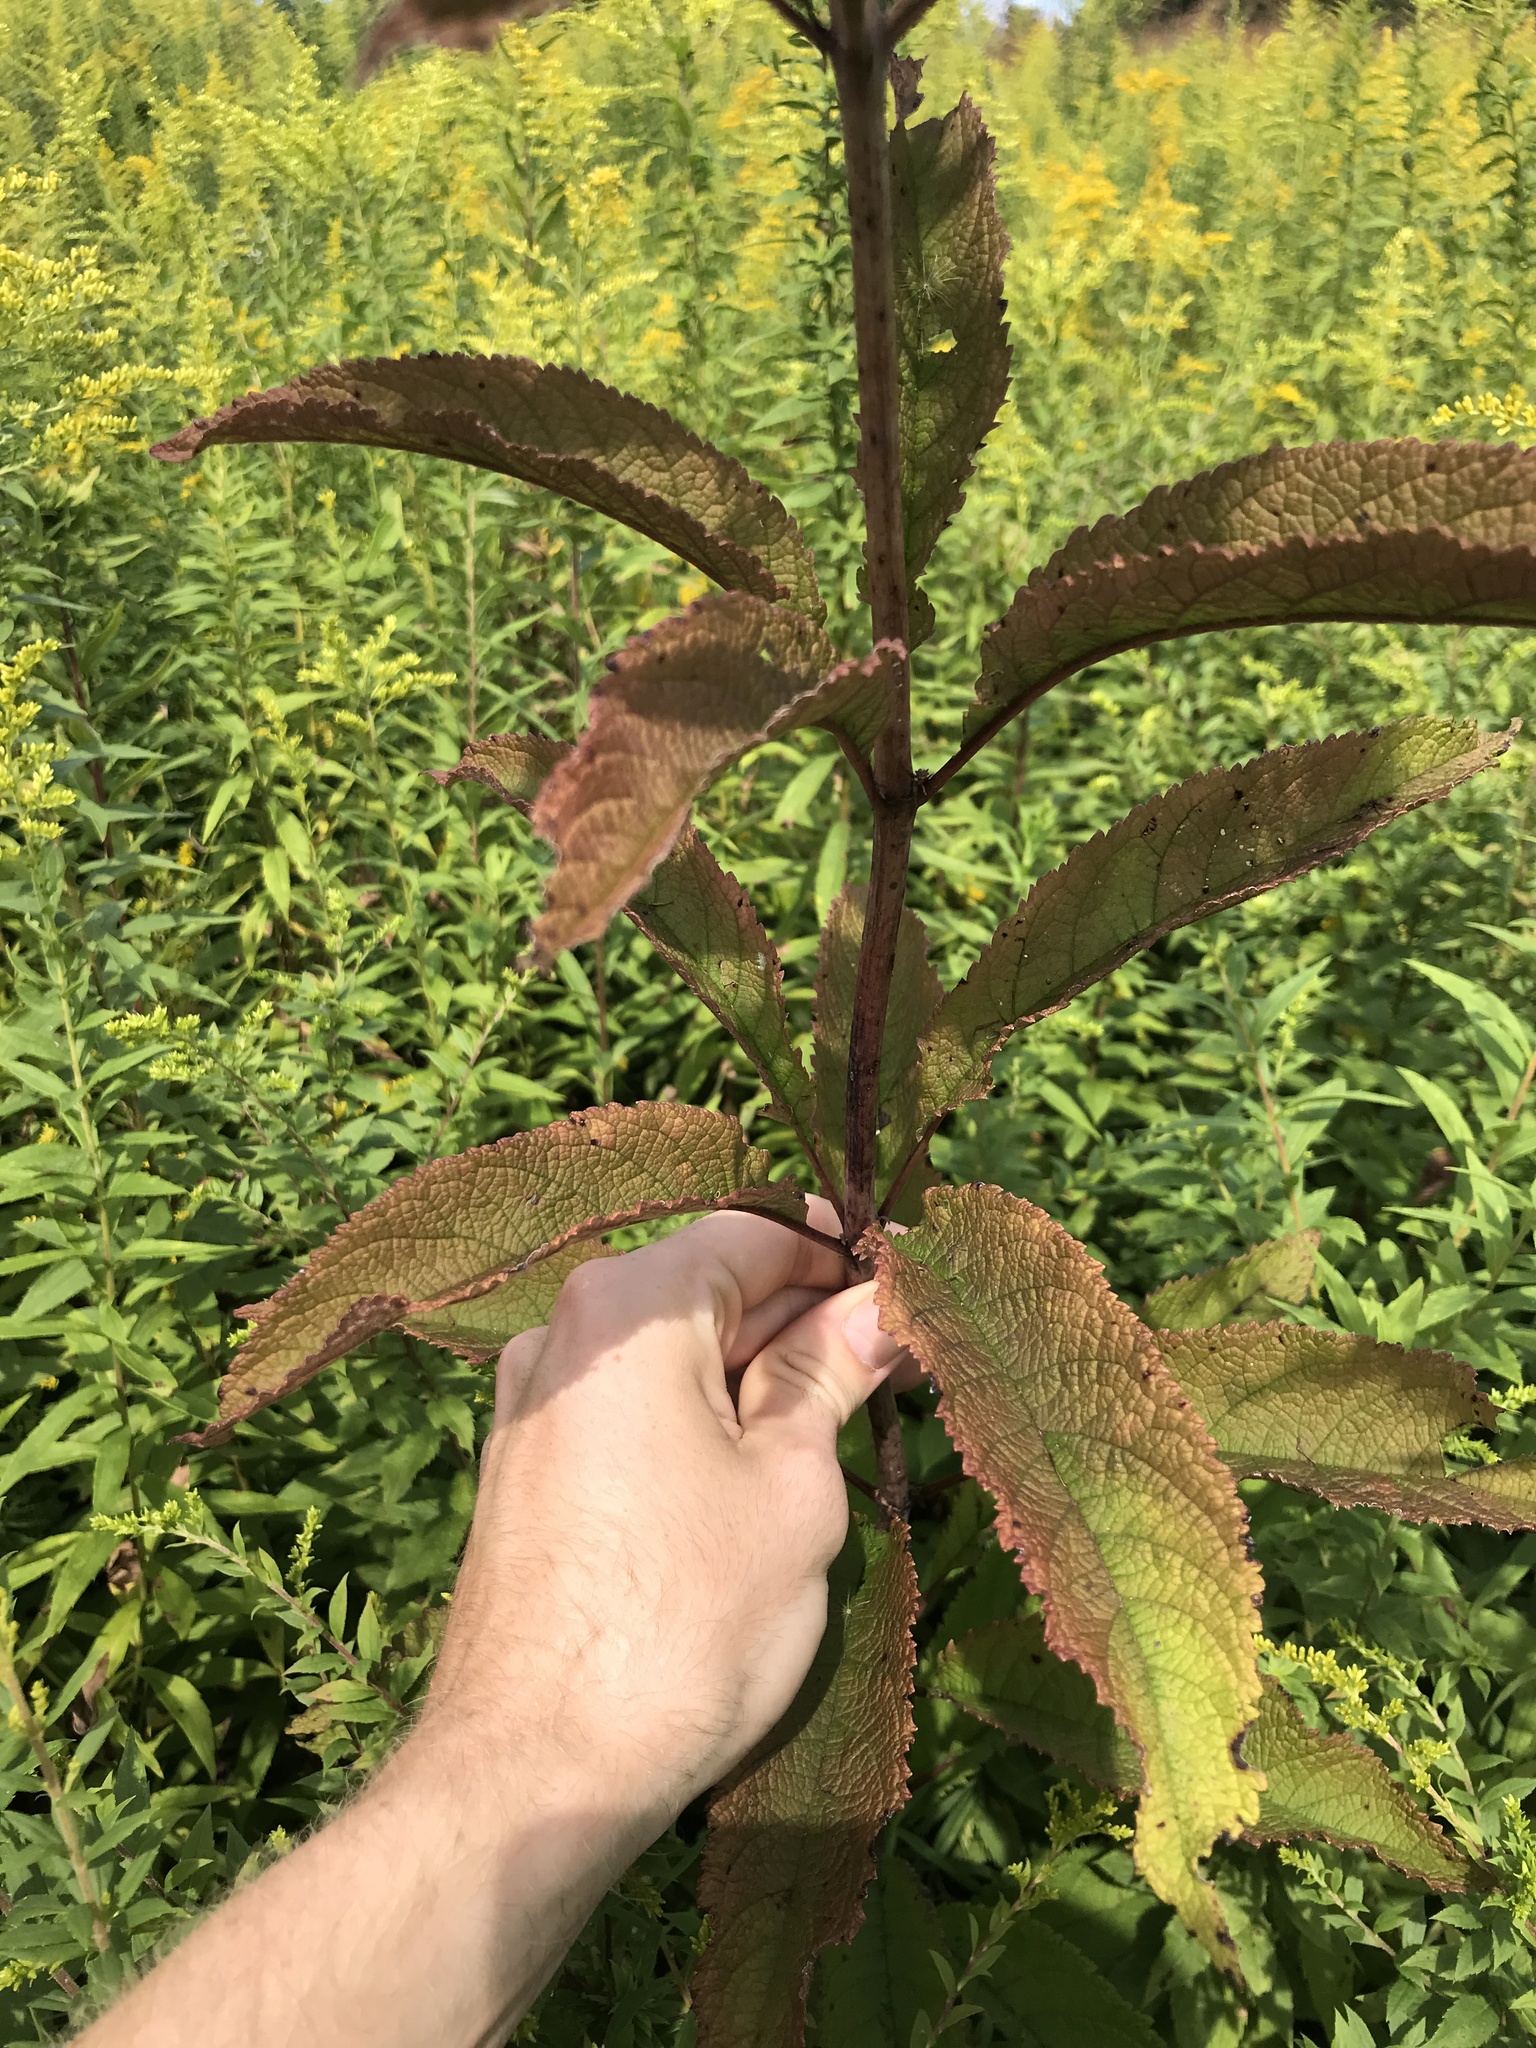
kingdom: Plantae
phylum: Tracheophyta
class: Magnoliopsida
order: Asterales
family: Asteraceae
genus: Eutrochium
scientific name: Eutrochium fistulosum
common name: Trumpetweed
